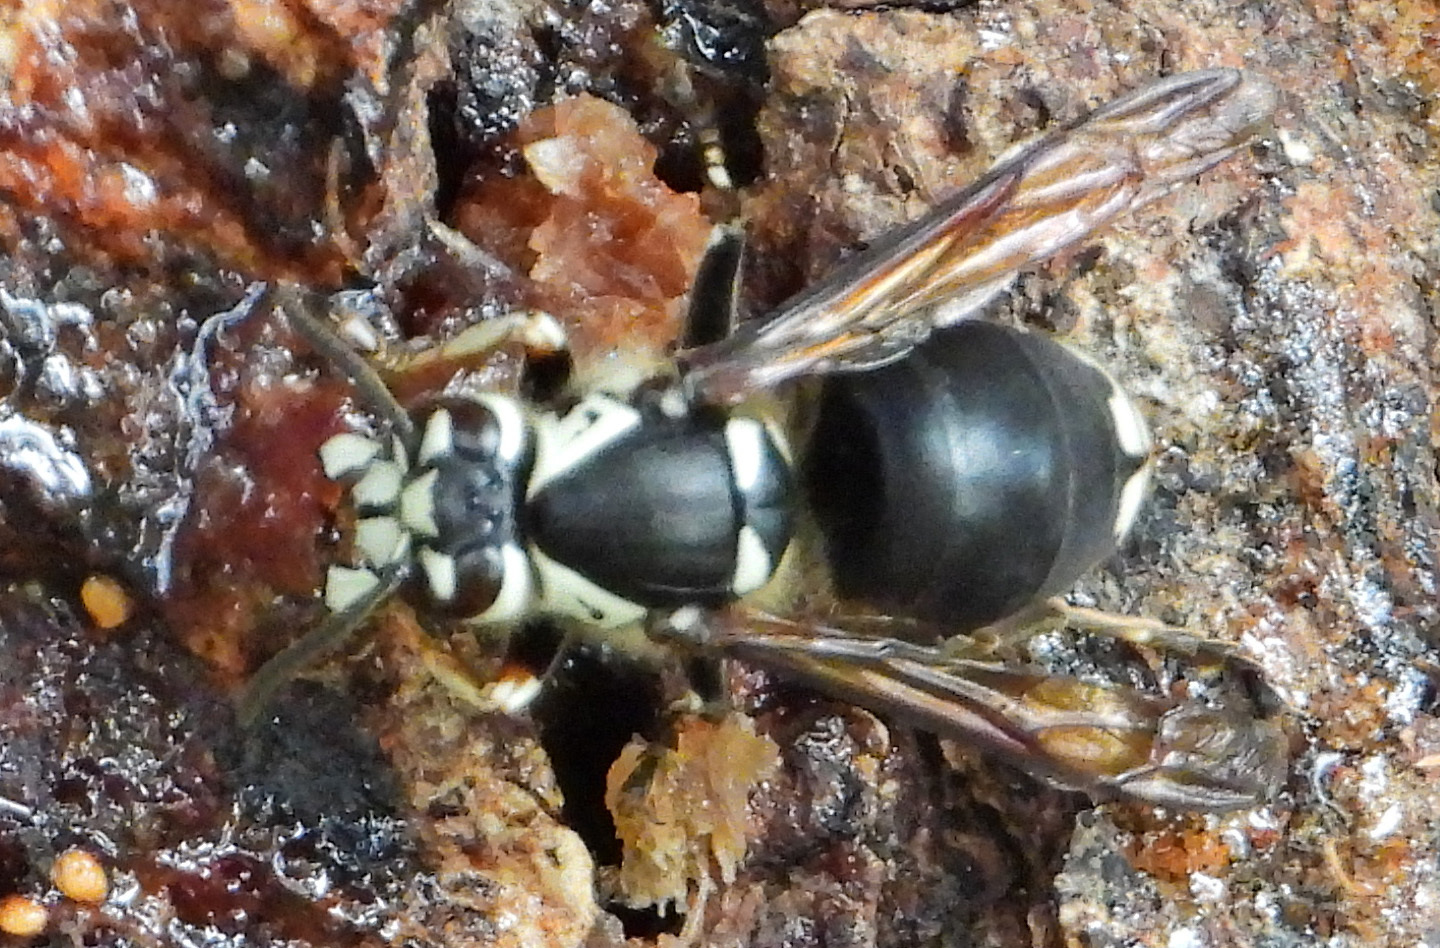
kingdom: Animalia
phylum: Arthropoda
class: Insecta
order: Hymenoptera
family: Vespidae
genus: Dolichovespula
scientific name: Dolichovespula maculata
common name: Bald-faced hornet
